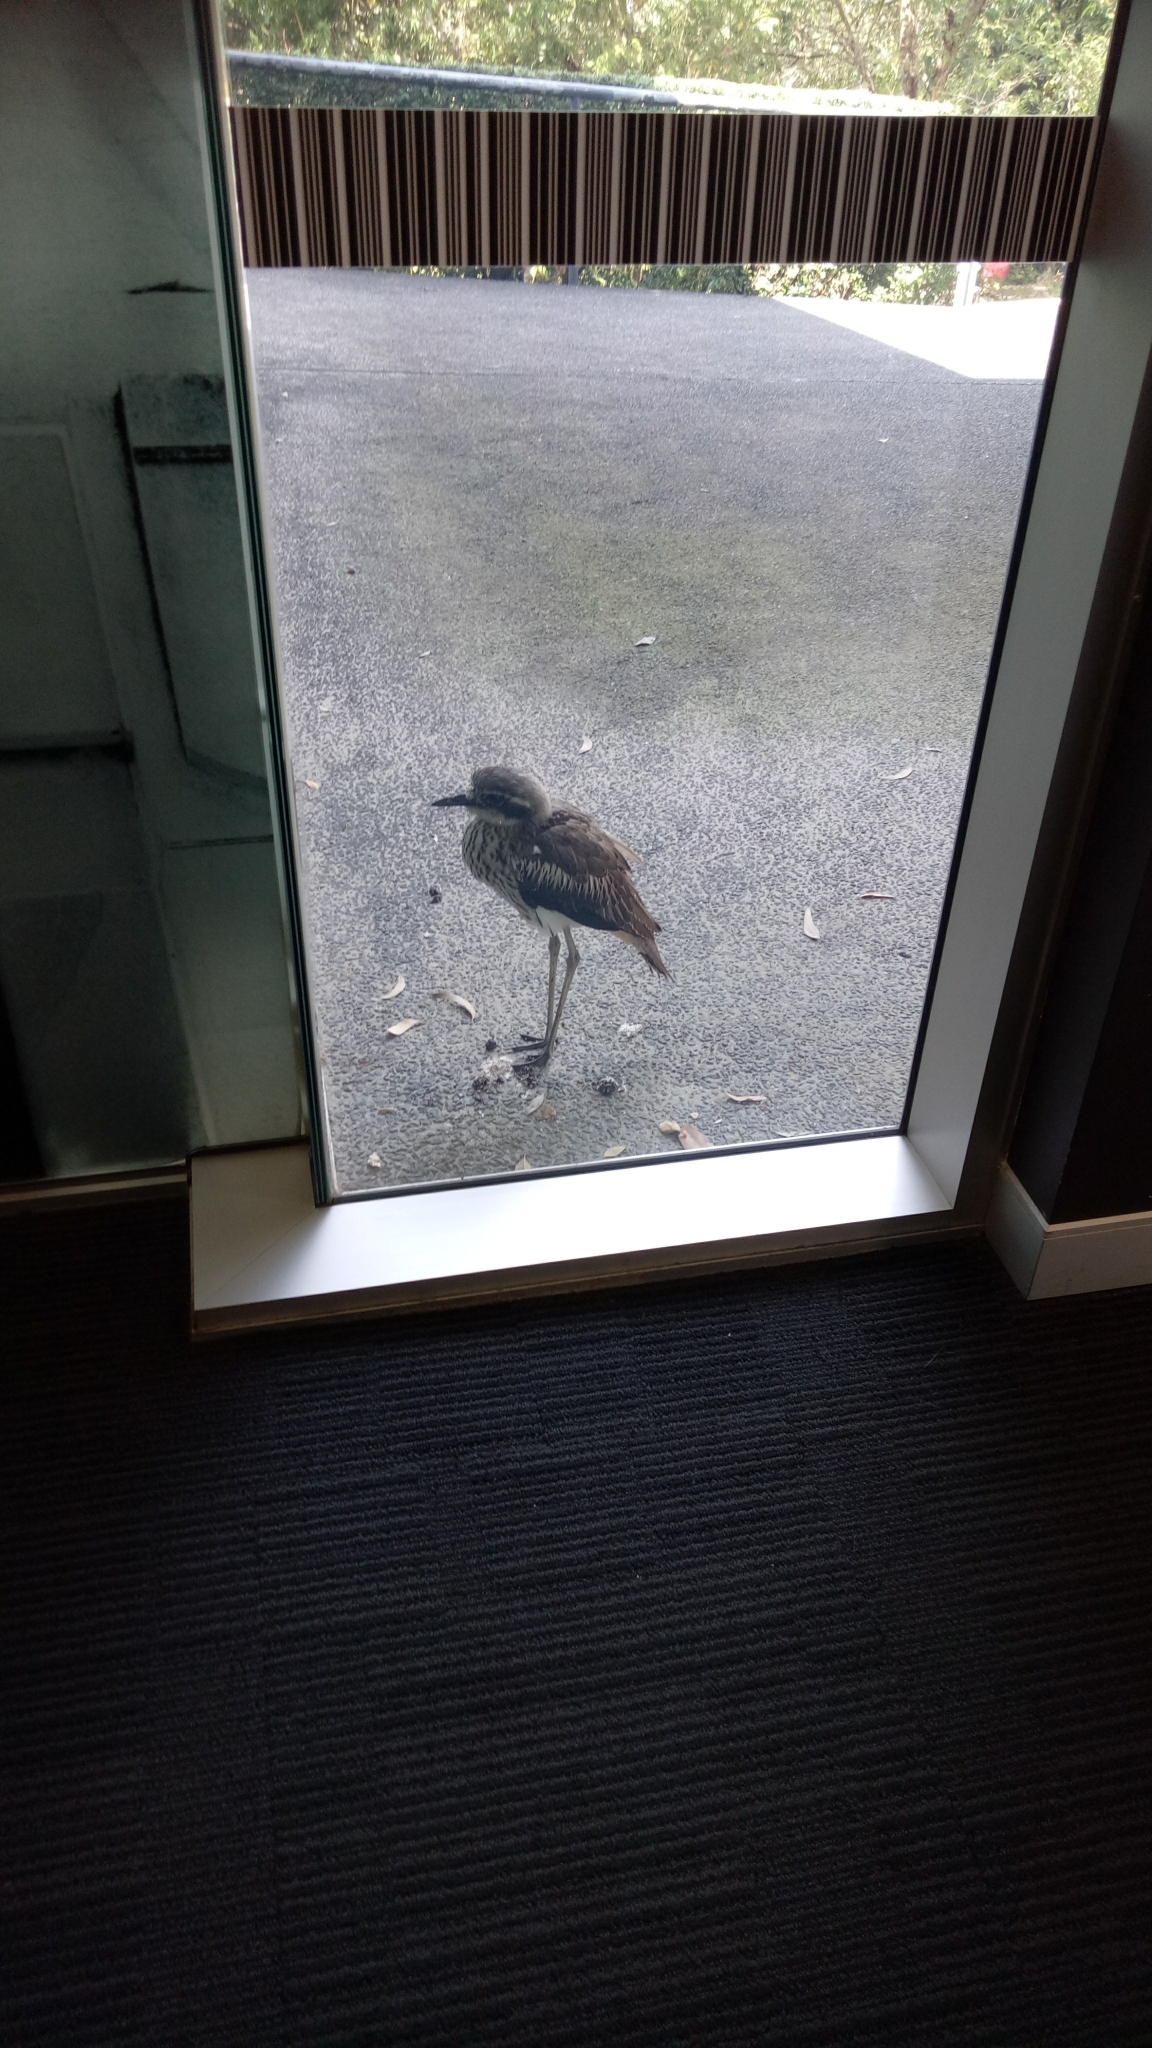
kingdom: Animalia
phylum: Chordata
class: Aves
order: Charadriiformes
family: Burhinidae
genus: Burhinus
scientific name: Burhinus grallarius
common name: Bush stone-curlew
